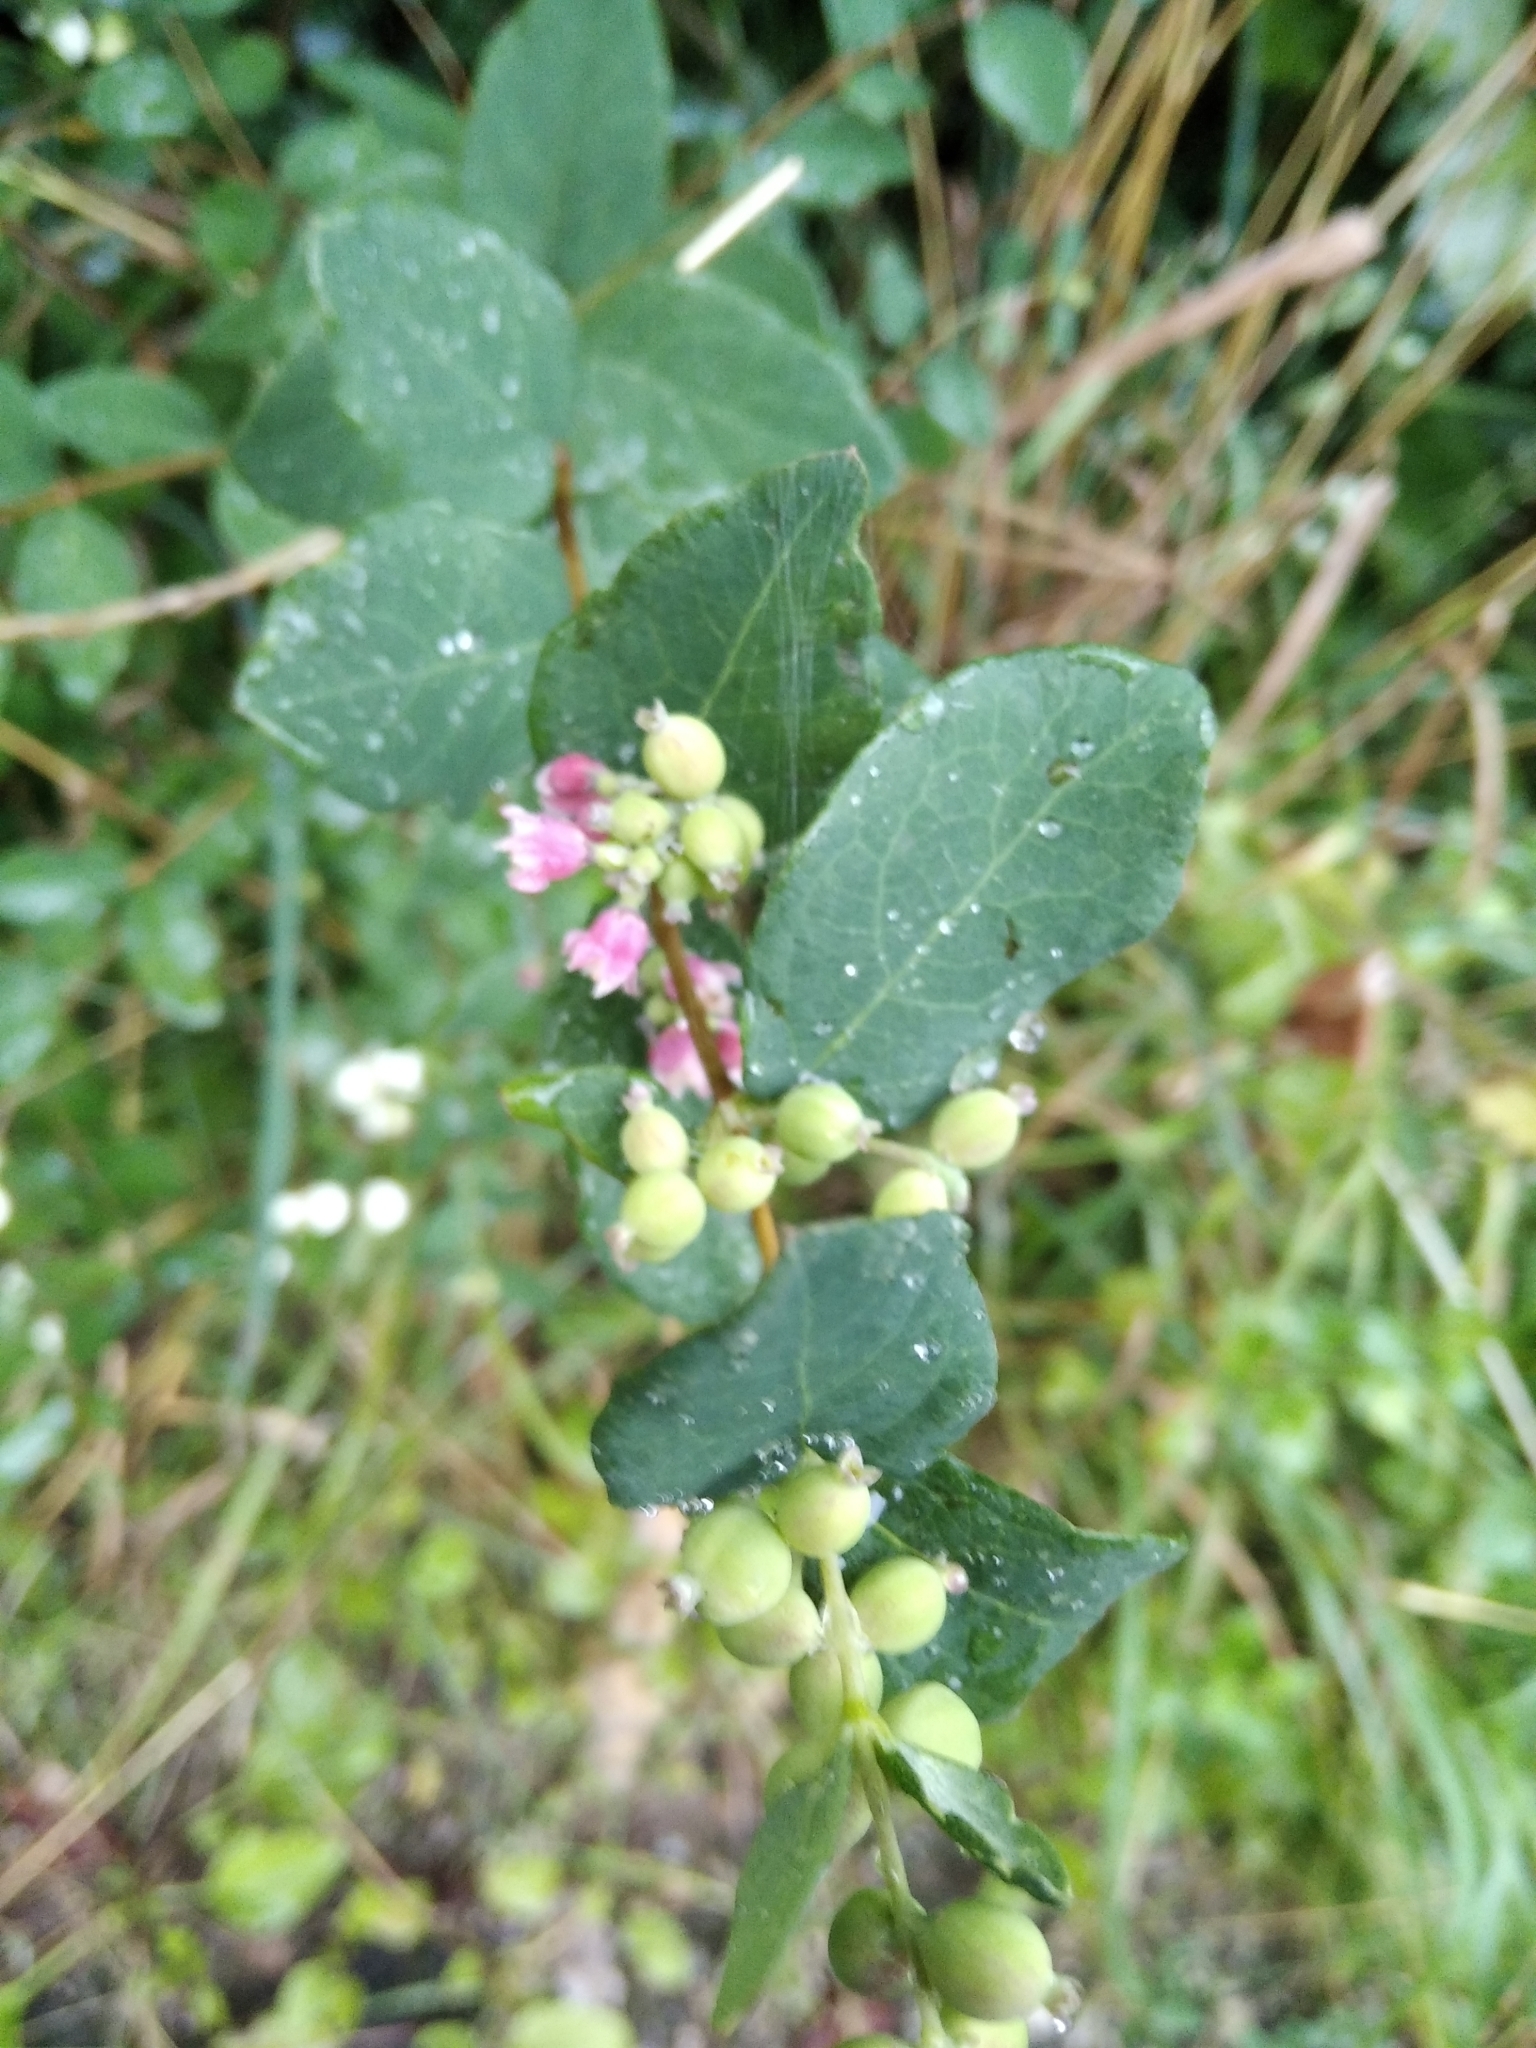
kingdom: Plantae
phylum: Tracheophyta
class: Magnoliopsida
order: Dipsacales
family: Caprifoliaceae
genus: Symphoricarpos
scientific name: Symphoricarpos albus
